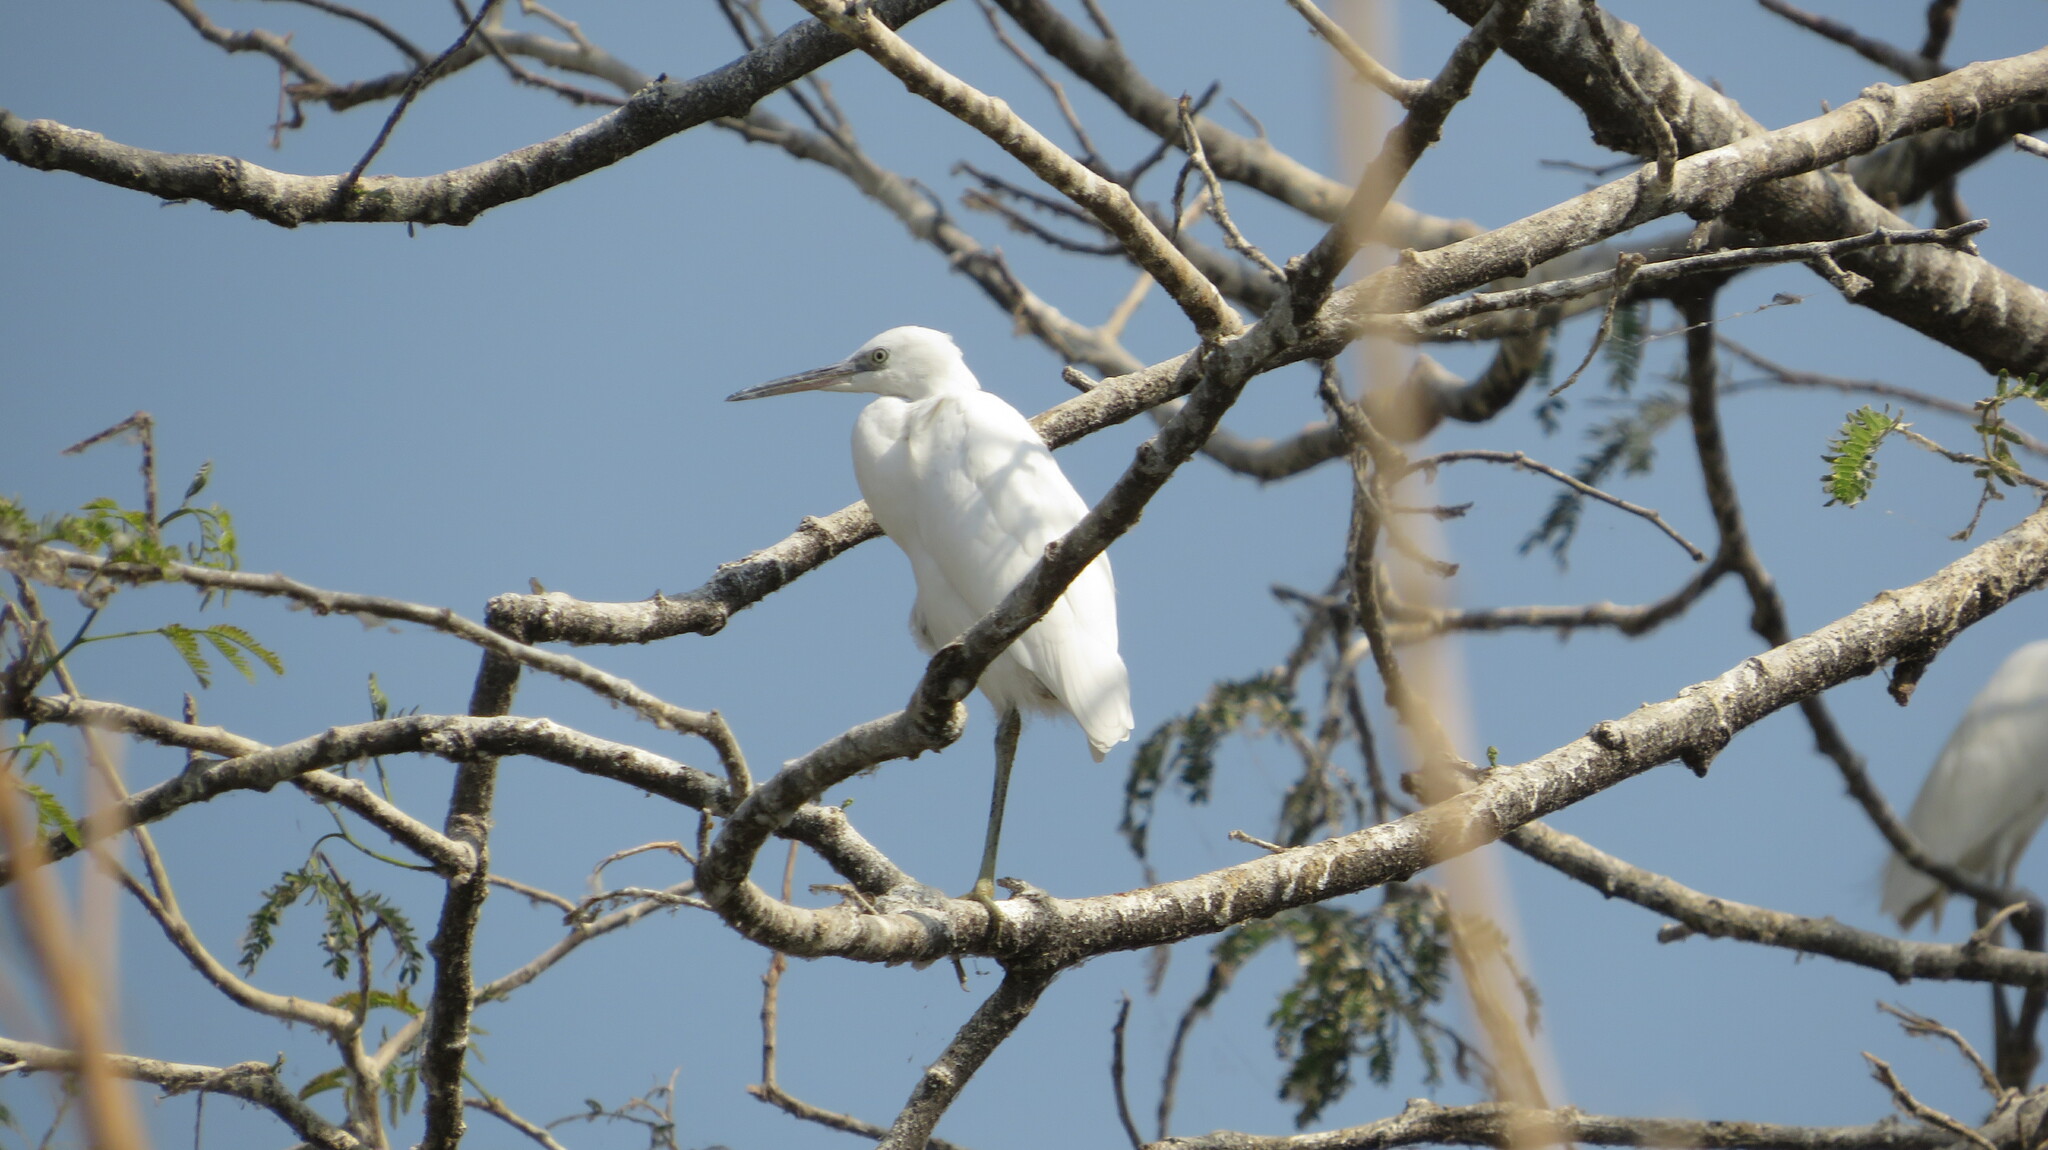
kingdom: Animalia
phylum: Chordata
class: Aves
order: Pelecaniformes
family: Ardeidae
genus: Egretta
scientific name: Egretta garzetta
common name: Little egret
